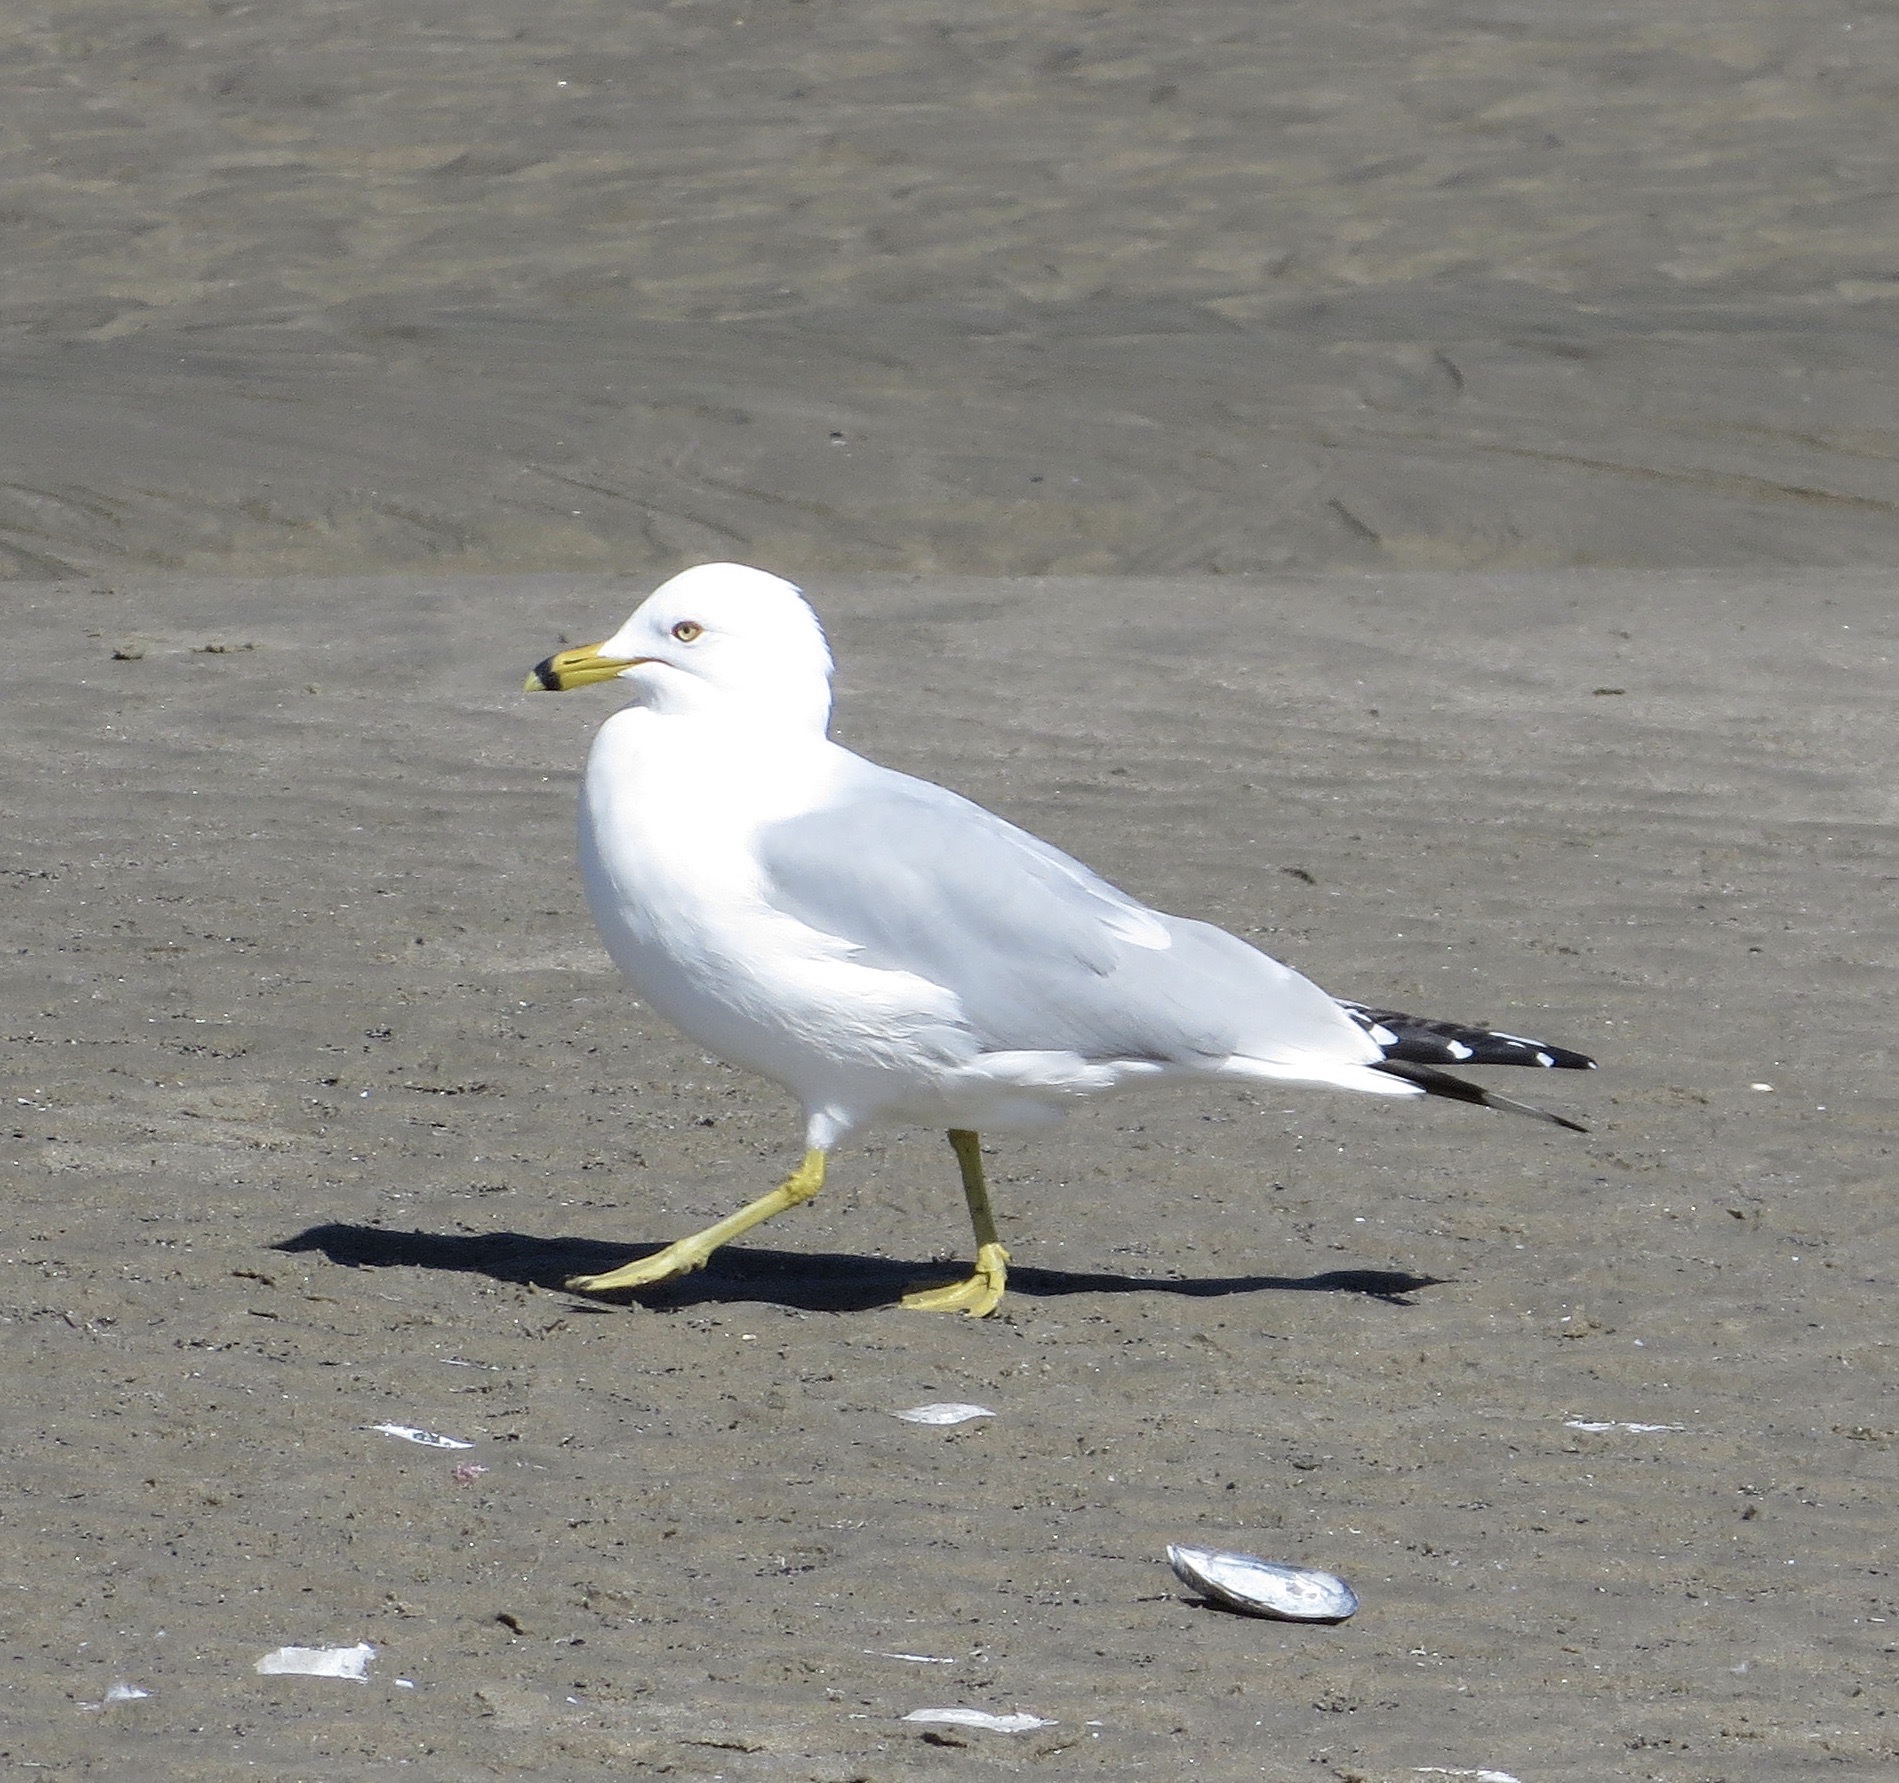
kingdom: Animalia
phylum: Chordata
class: Aves
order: Charadriiformes
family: Laridae
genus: Larus
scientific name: Larus delawarensis
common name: Ring-billed gull
